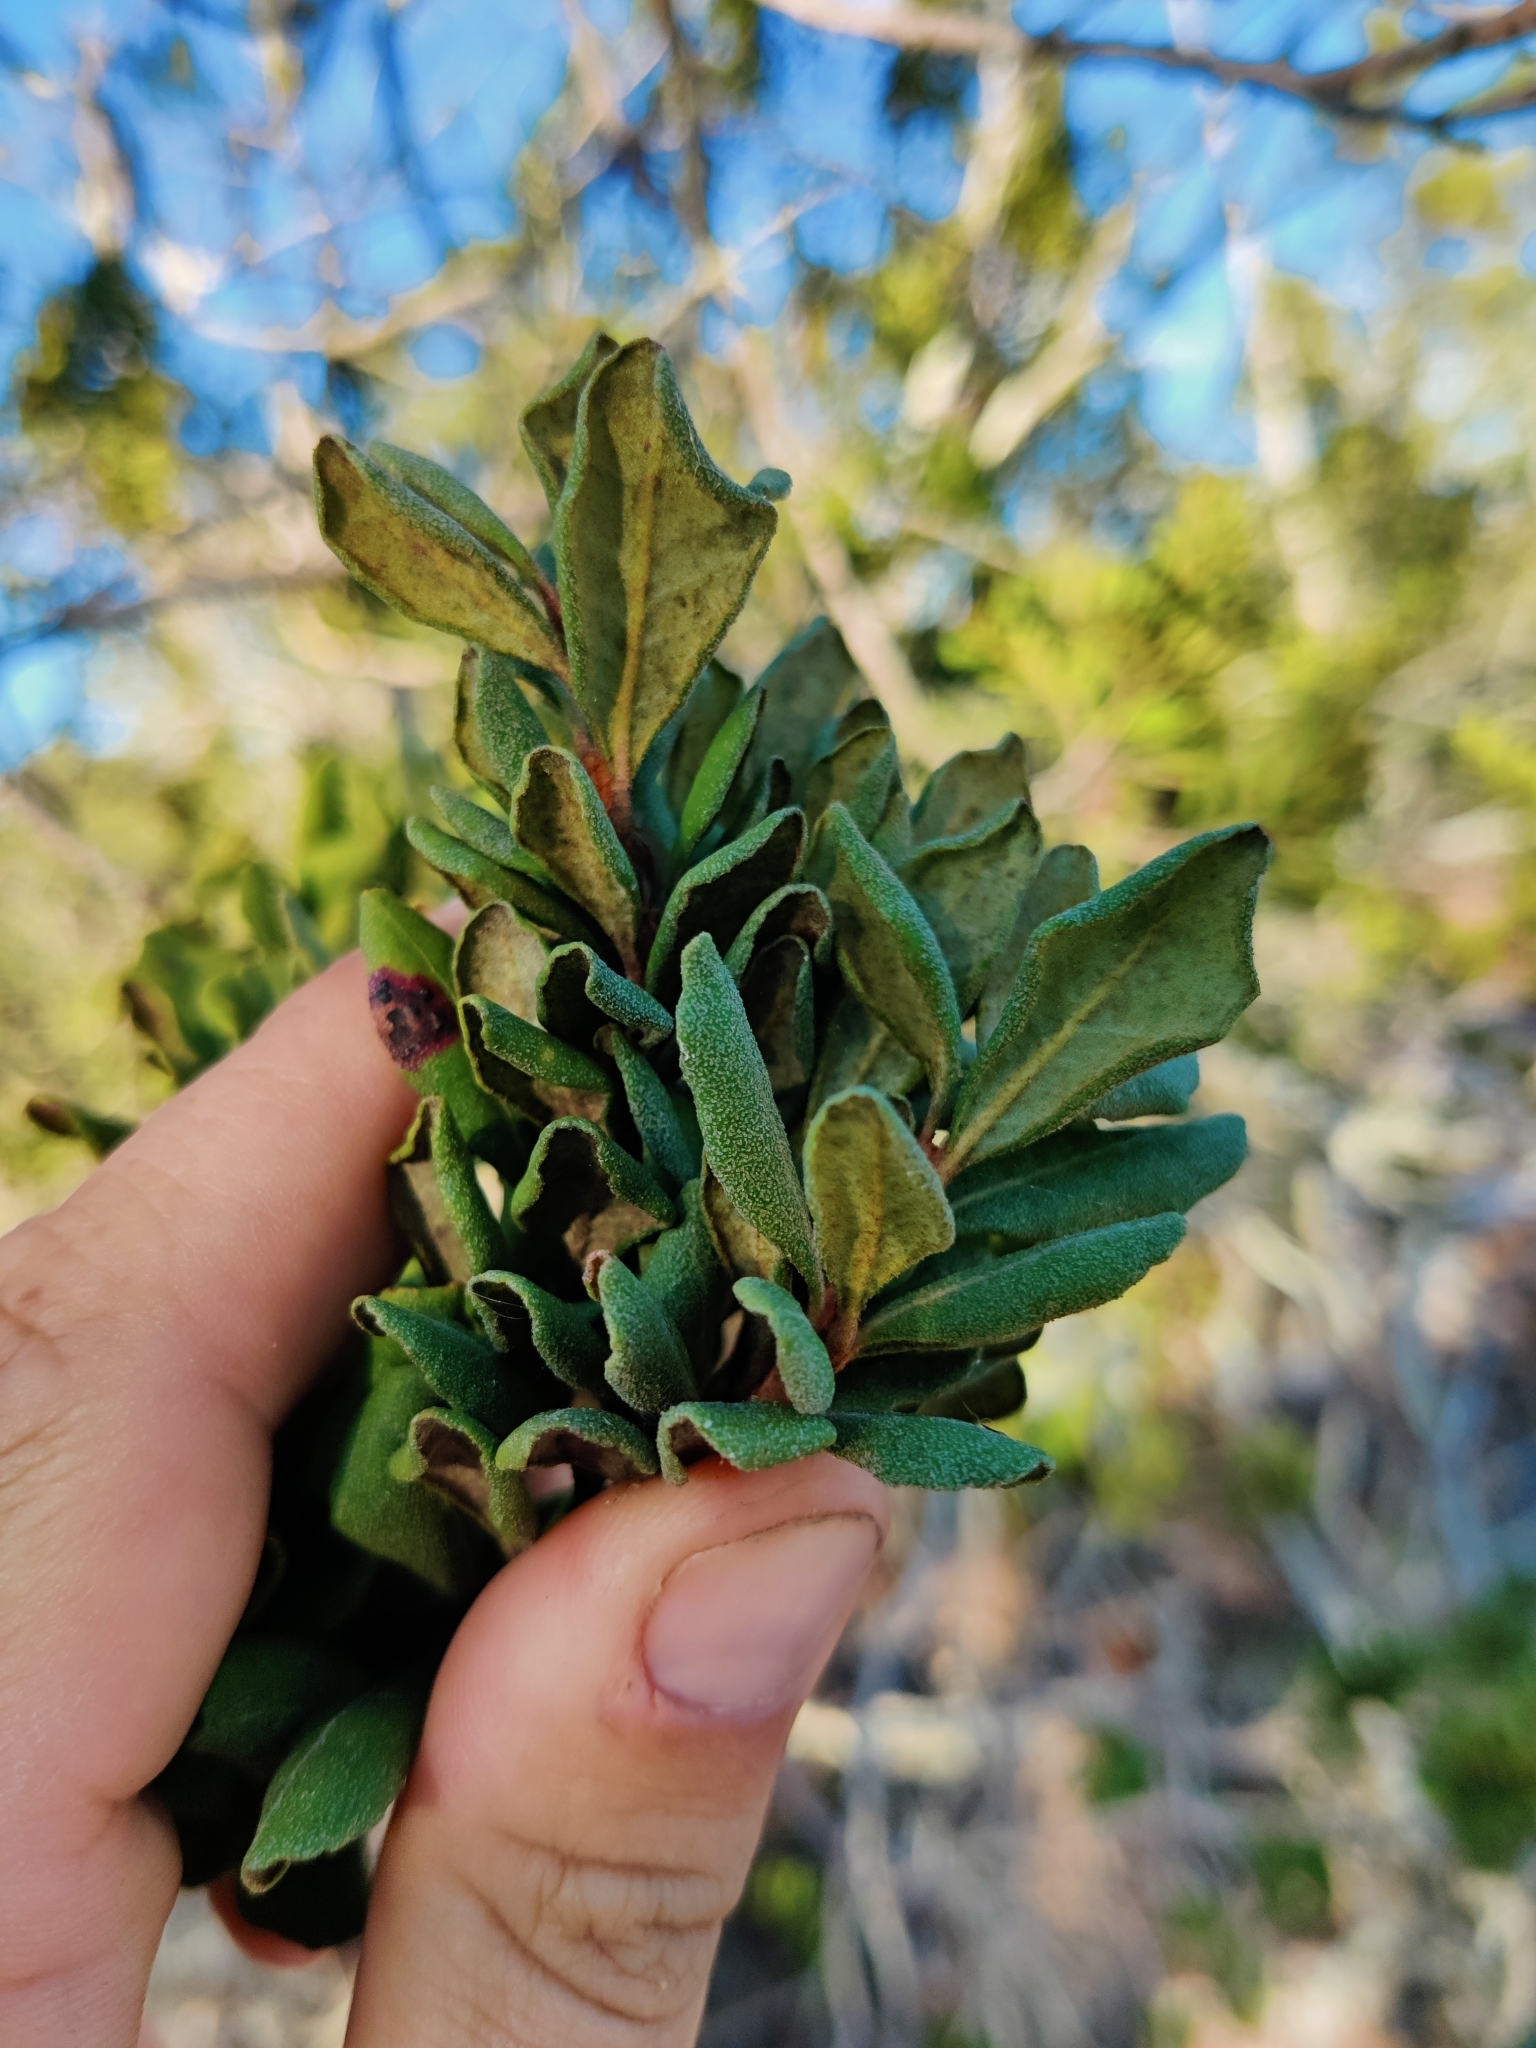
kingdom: Plantae
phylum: Tracheophyta
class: Magnoliopsida
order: Ericales
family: Ericaceae
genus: Lyonia
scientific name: Lyonia ferruginea
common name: Rusty lyonia
